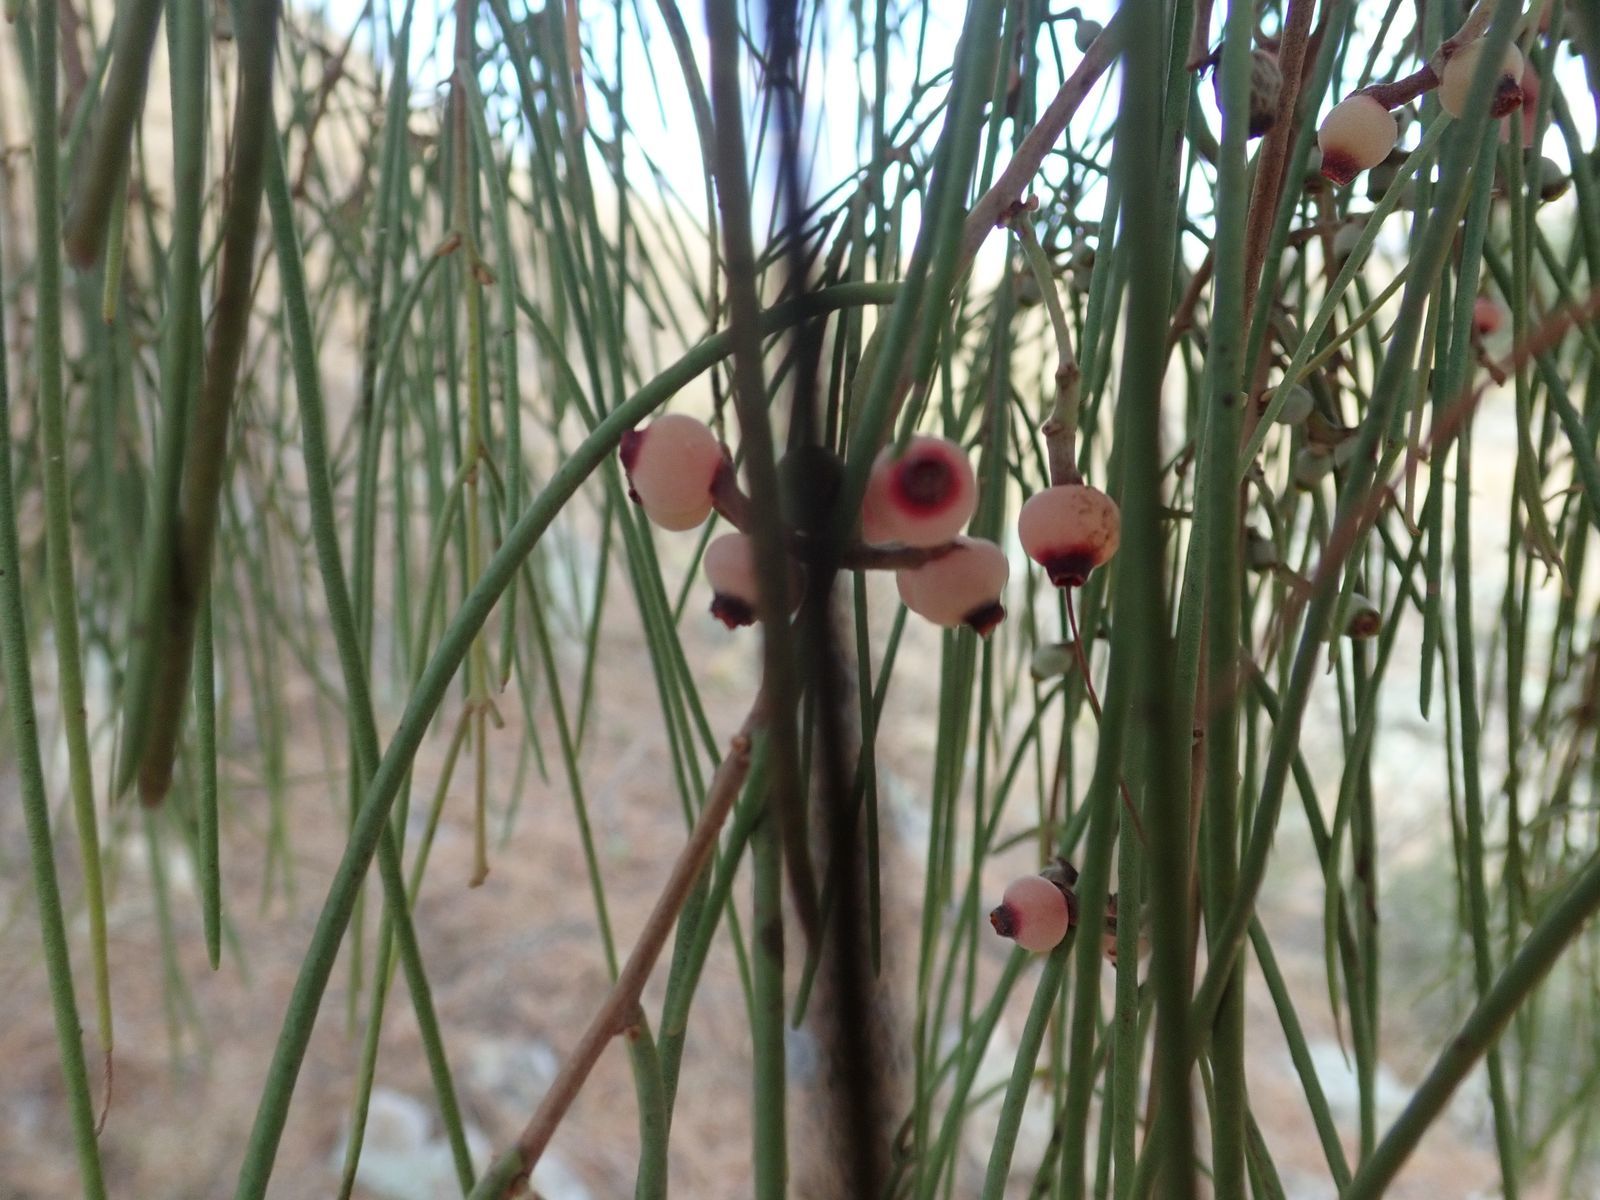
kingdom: Plantae
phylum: Tracheophyta
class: Magnoliopsida
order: Santalales
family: Loranthaceae
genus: Amyema
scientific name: Amyema cambagei
